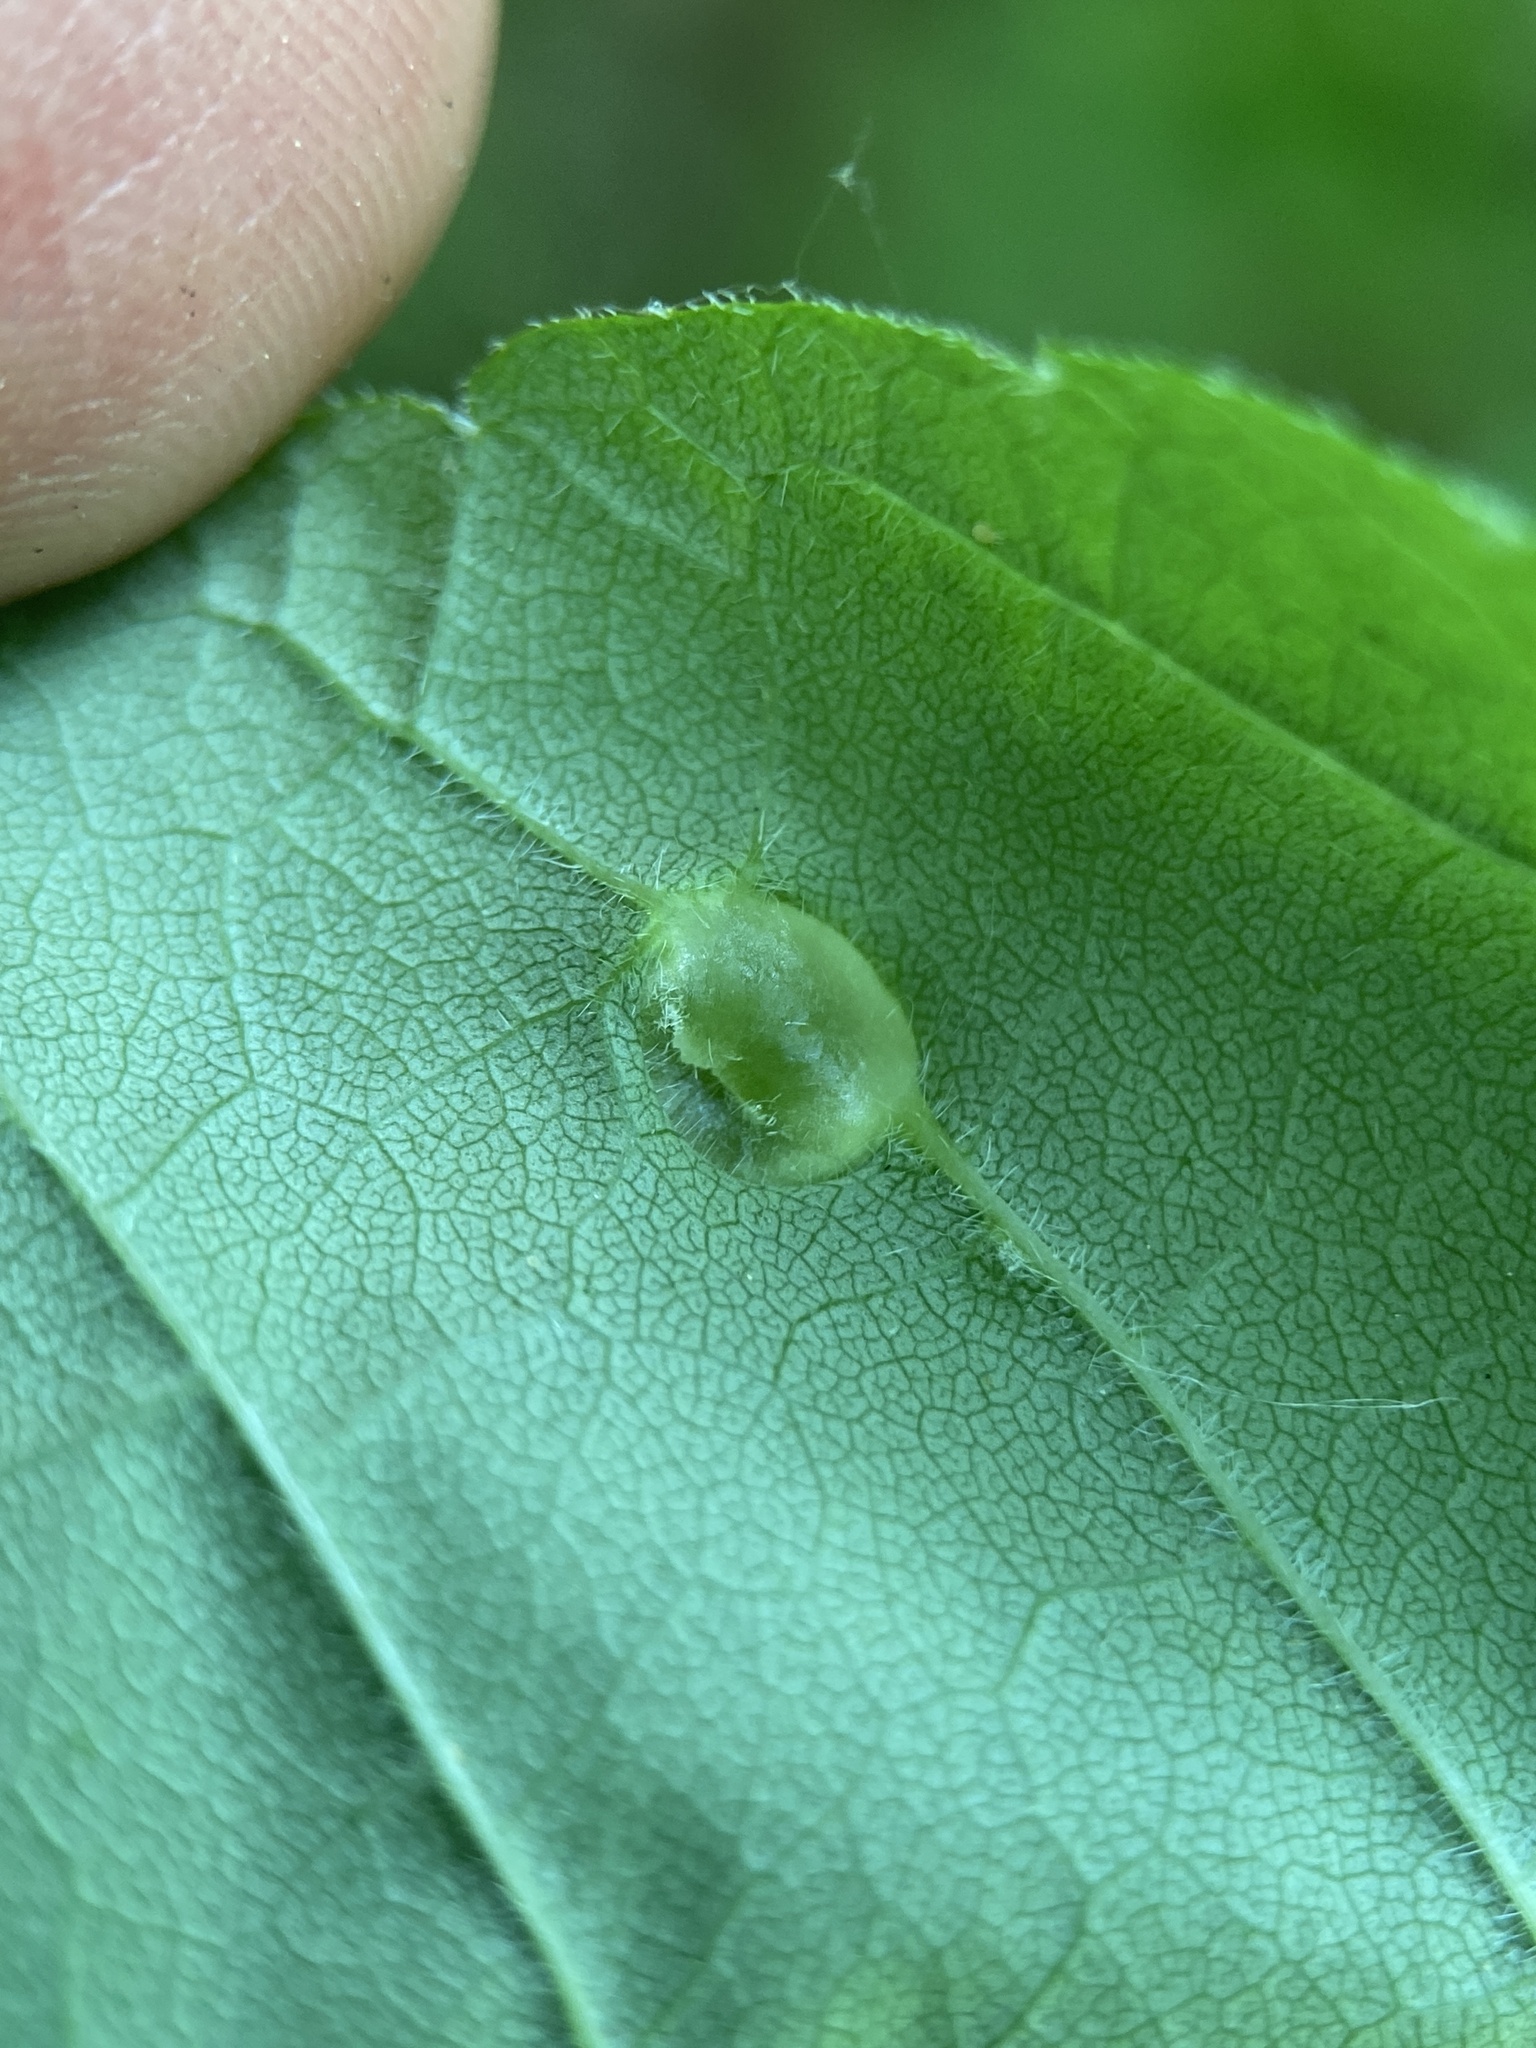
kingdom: Animalia
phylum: Arthropoda
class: Insecta
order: Diptera
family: Cecidomyiidae
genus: Dasineura
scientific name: Dasineura pellex
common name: Ash bullet gall midge
